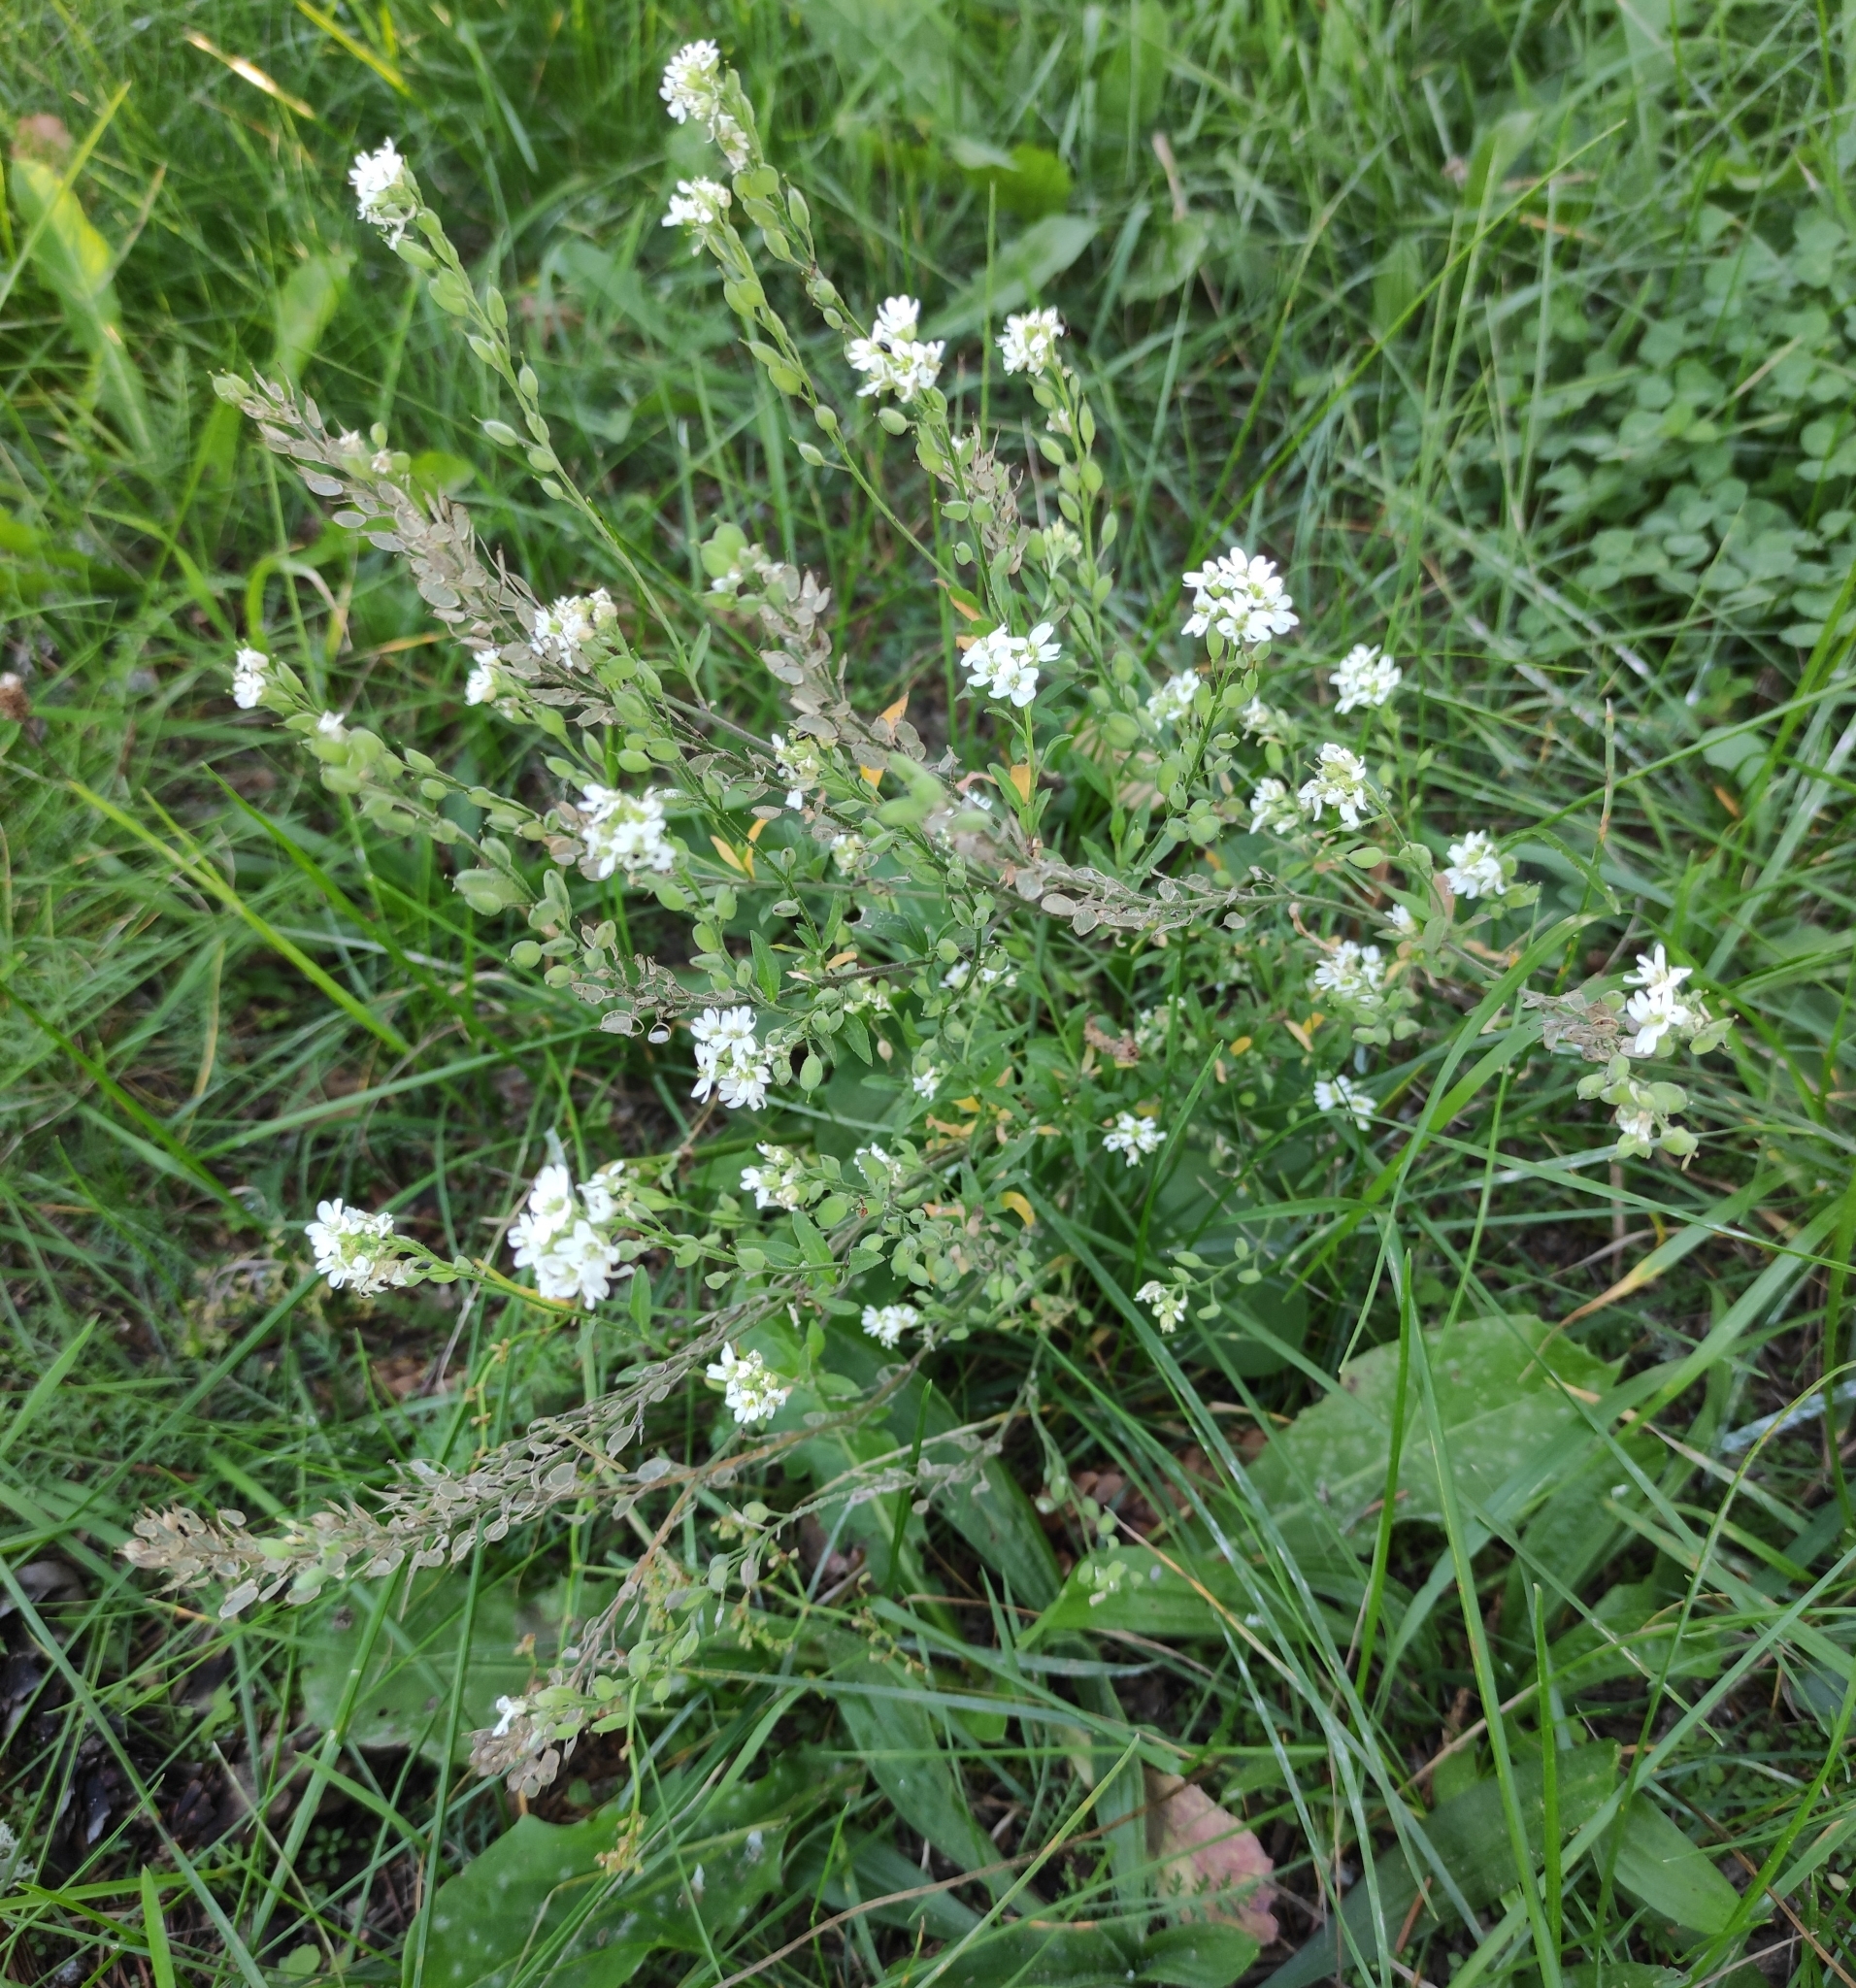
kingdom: Plantae
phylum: Tracheophyta
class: Magnoliopsida
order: Brassicales
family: Brassicaceae
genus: Berteroa
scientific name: Berteroa incana
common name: Hoary alison
